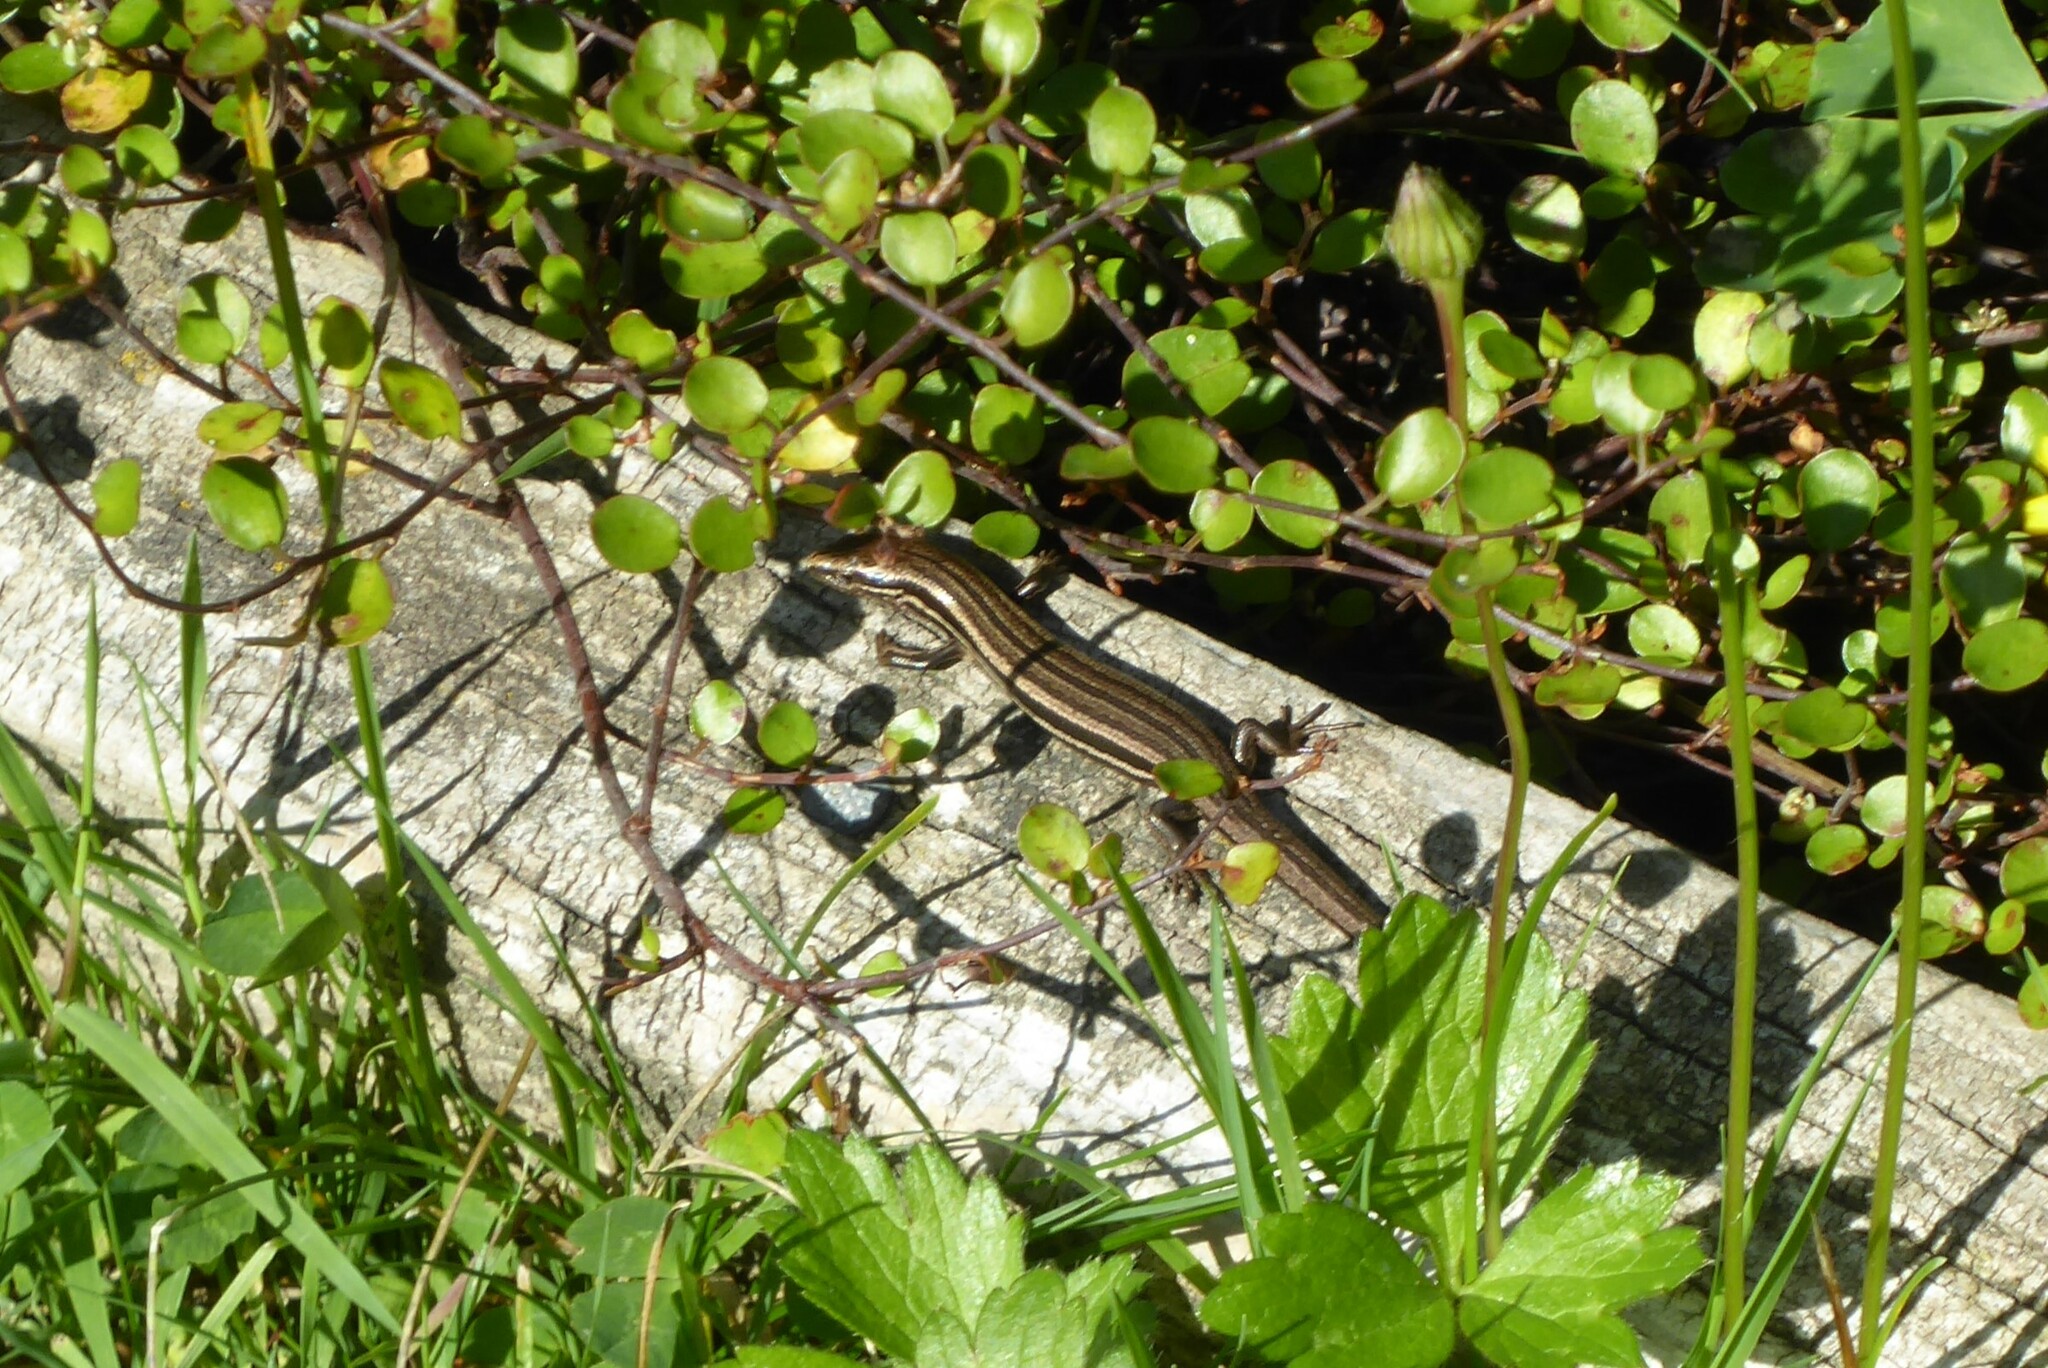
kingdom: Animalia
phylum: Chordata
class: Squamata
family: Scincidae
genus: Oligosoma
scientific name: Oligosoma polychroma
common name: Common new zealand skink
